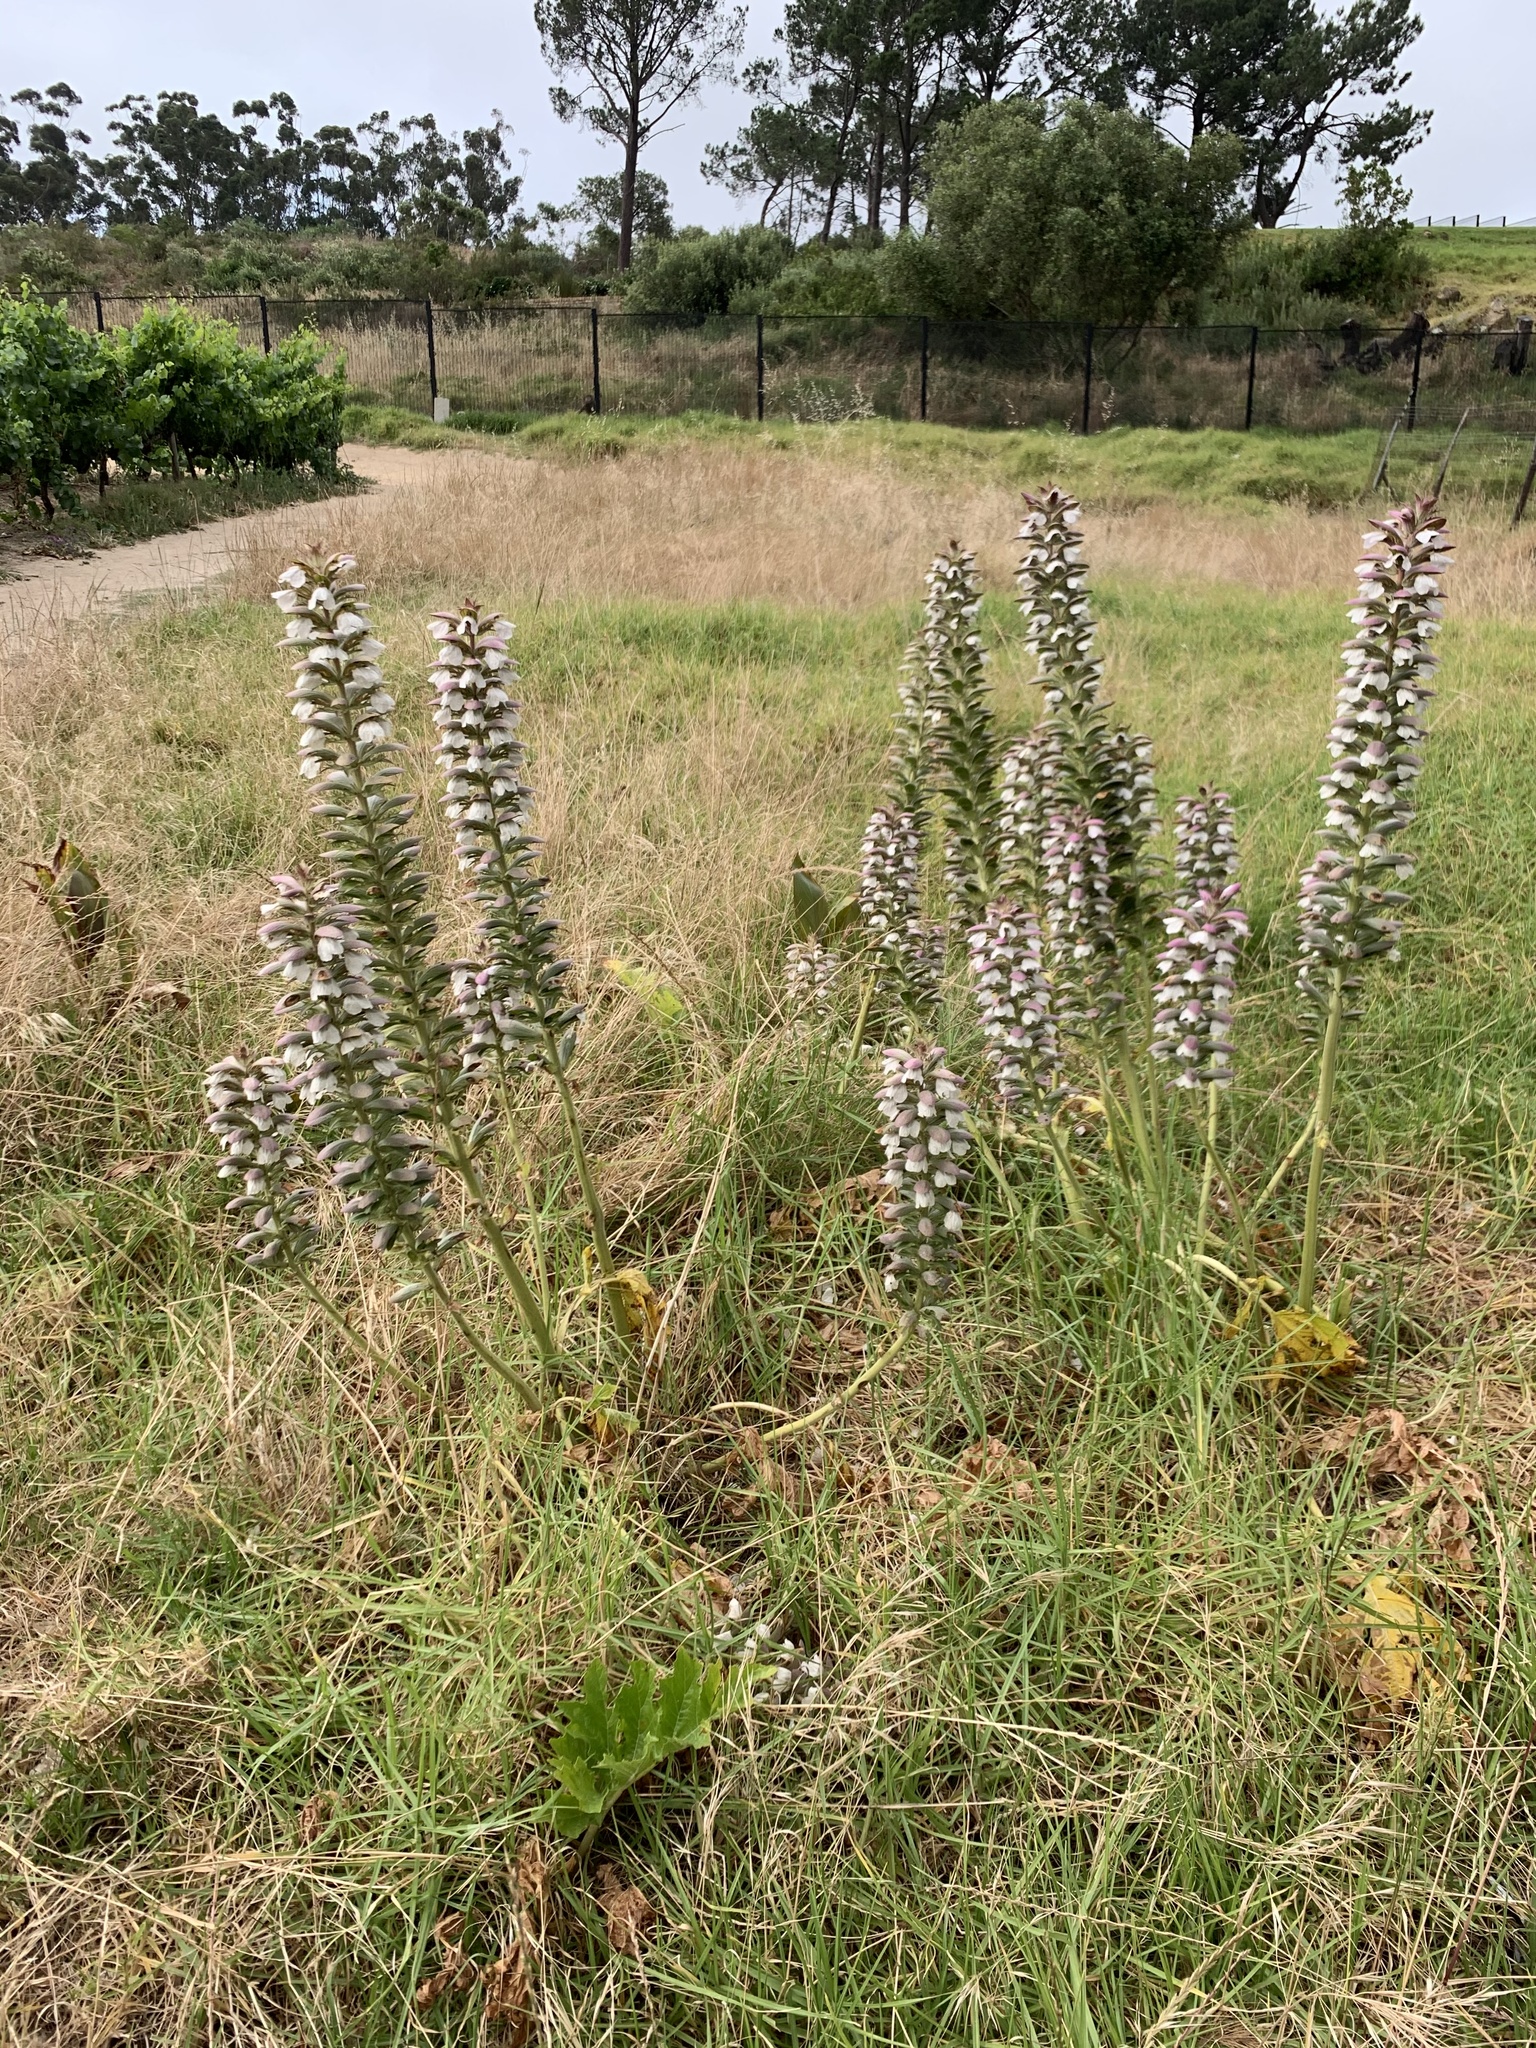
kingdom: Plantae
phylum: Tracheophyta
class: Magnoliopsida
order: Lamiales
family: Acanthaceae
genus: Acanthus
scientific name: Acanthus mollis
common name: Bear's-breech
